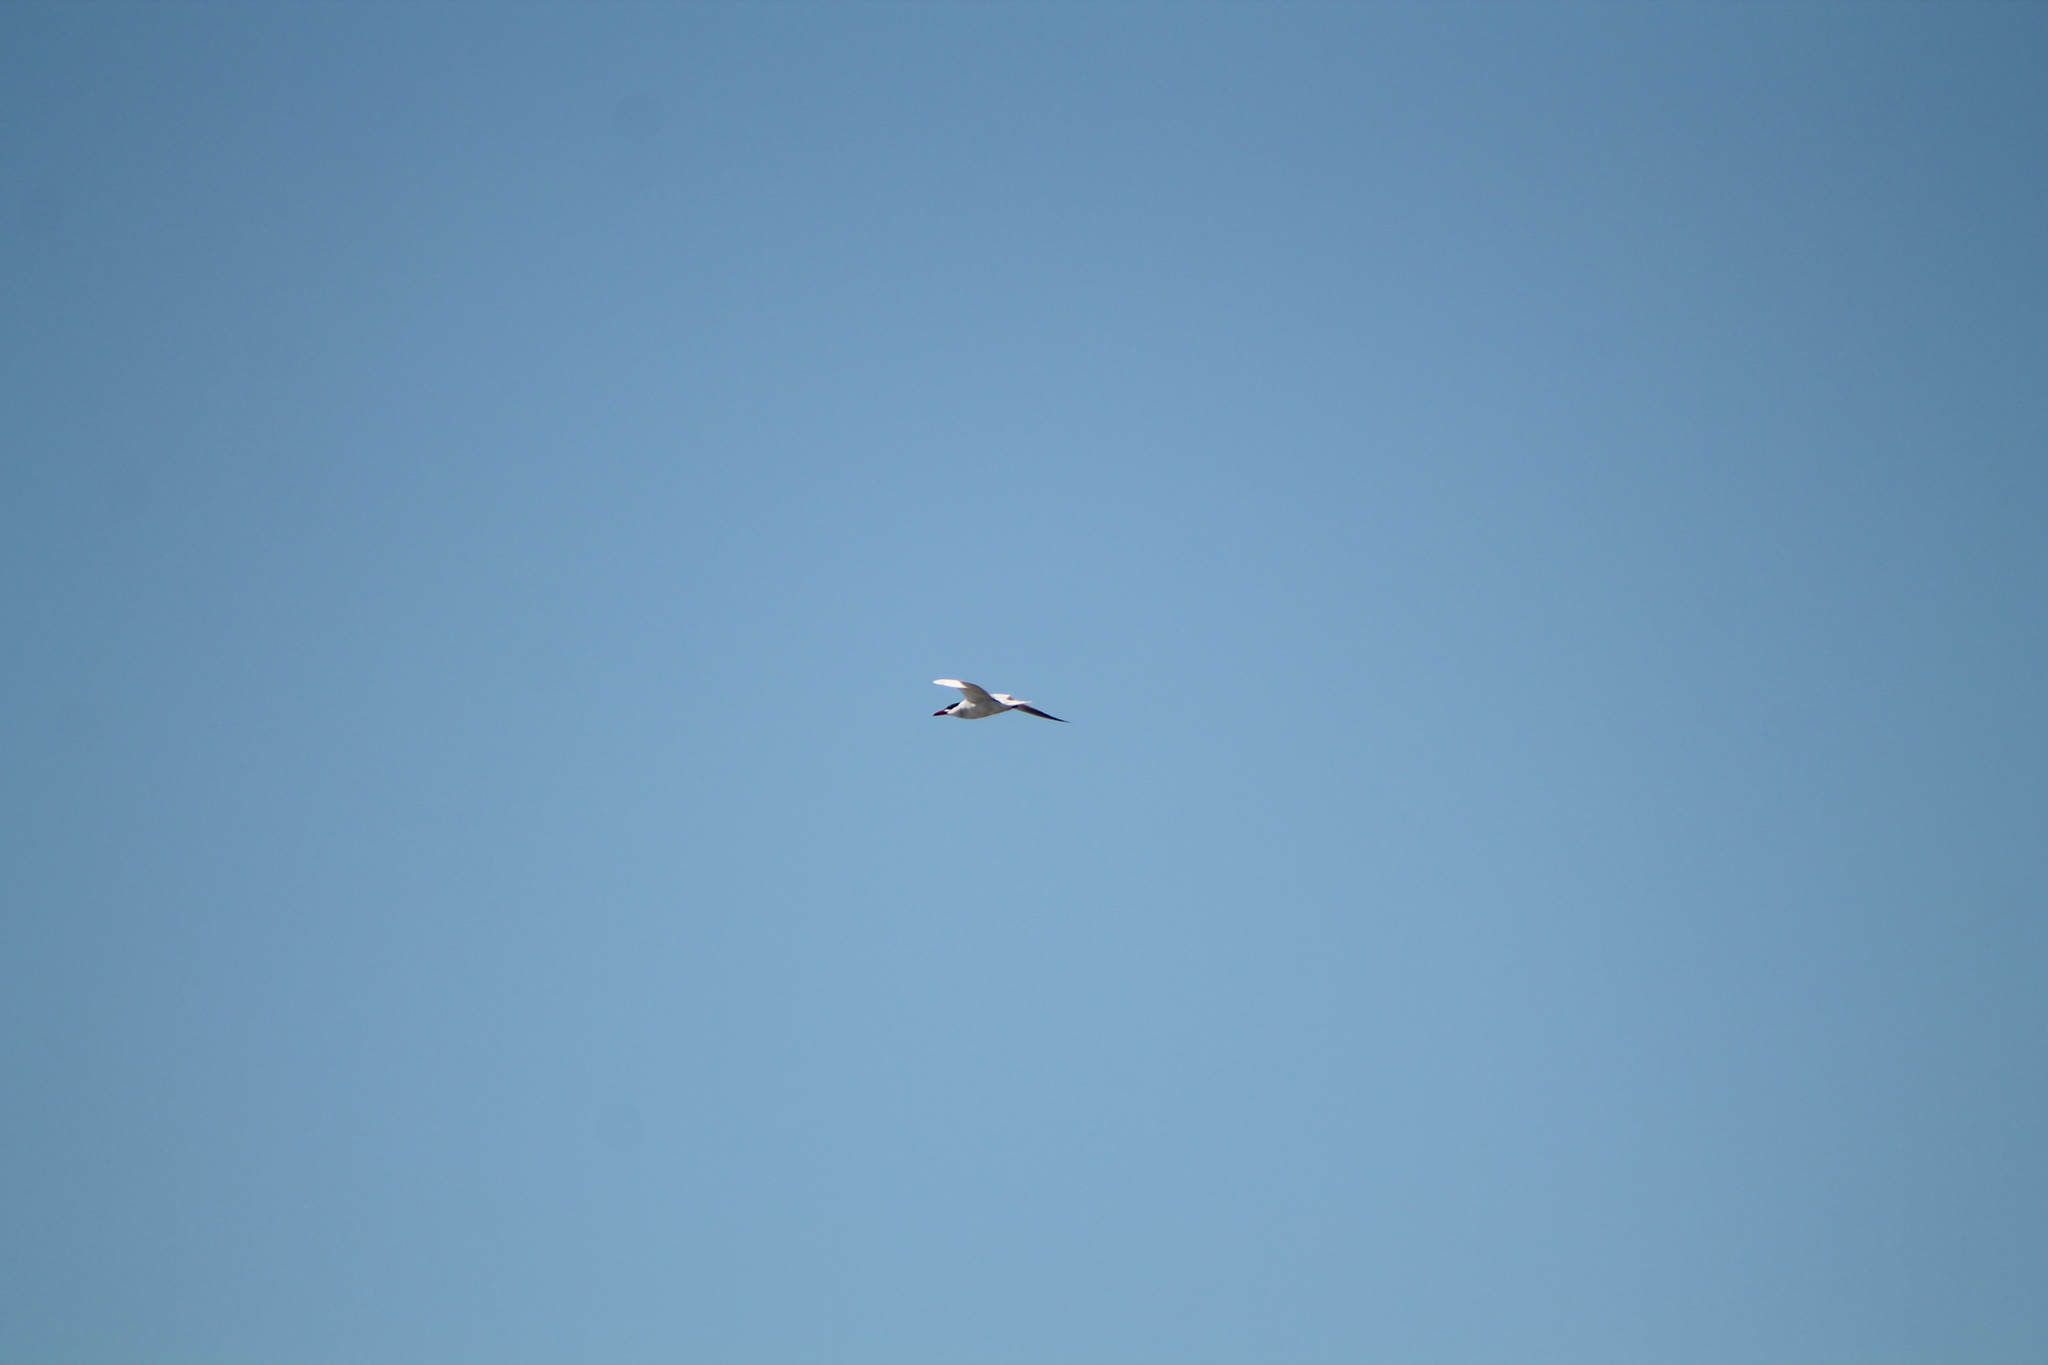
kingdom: Animalia
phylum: Chordata
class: Aves
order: Charadriiformes
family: Laridae
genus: Hydroprogne
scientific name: Hydroprogne caspia
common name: Caspian tern
